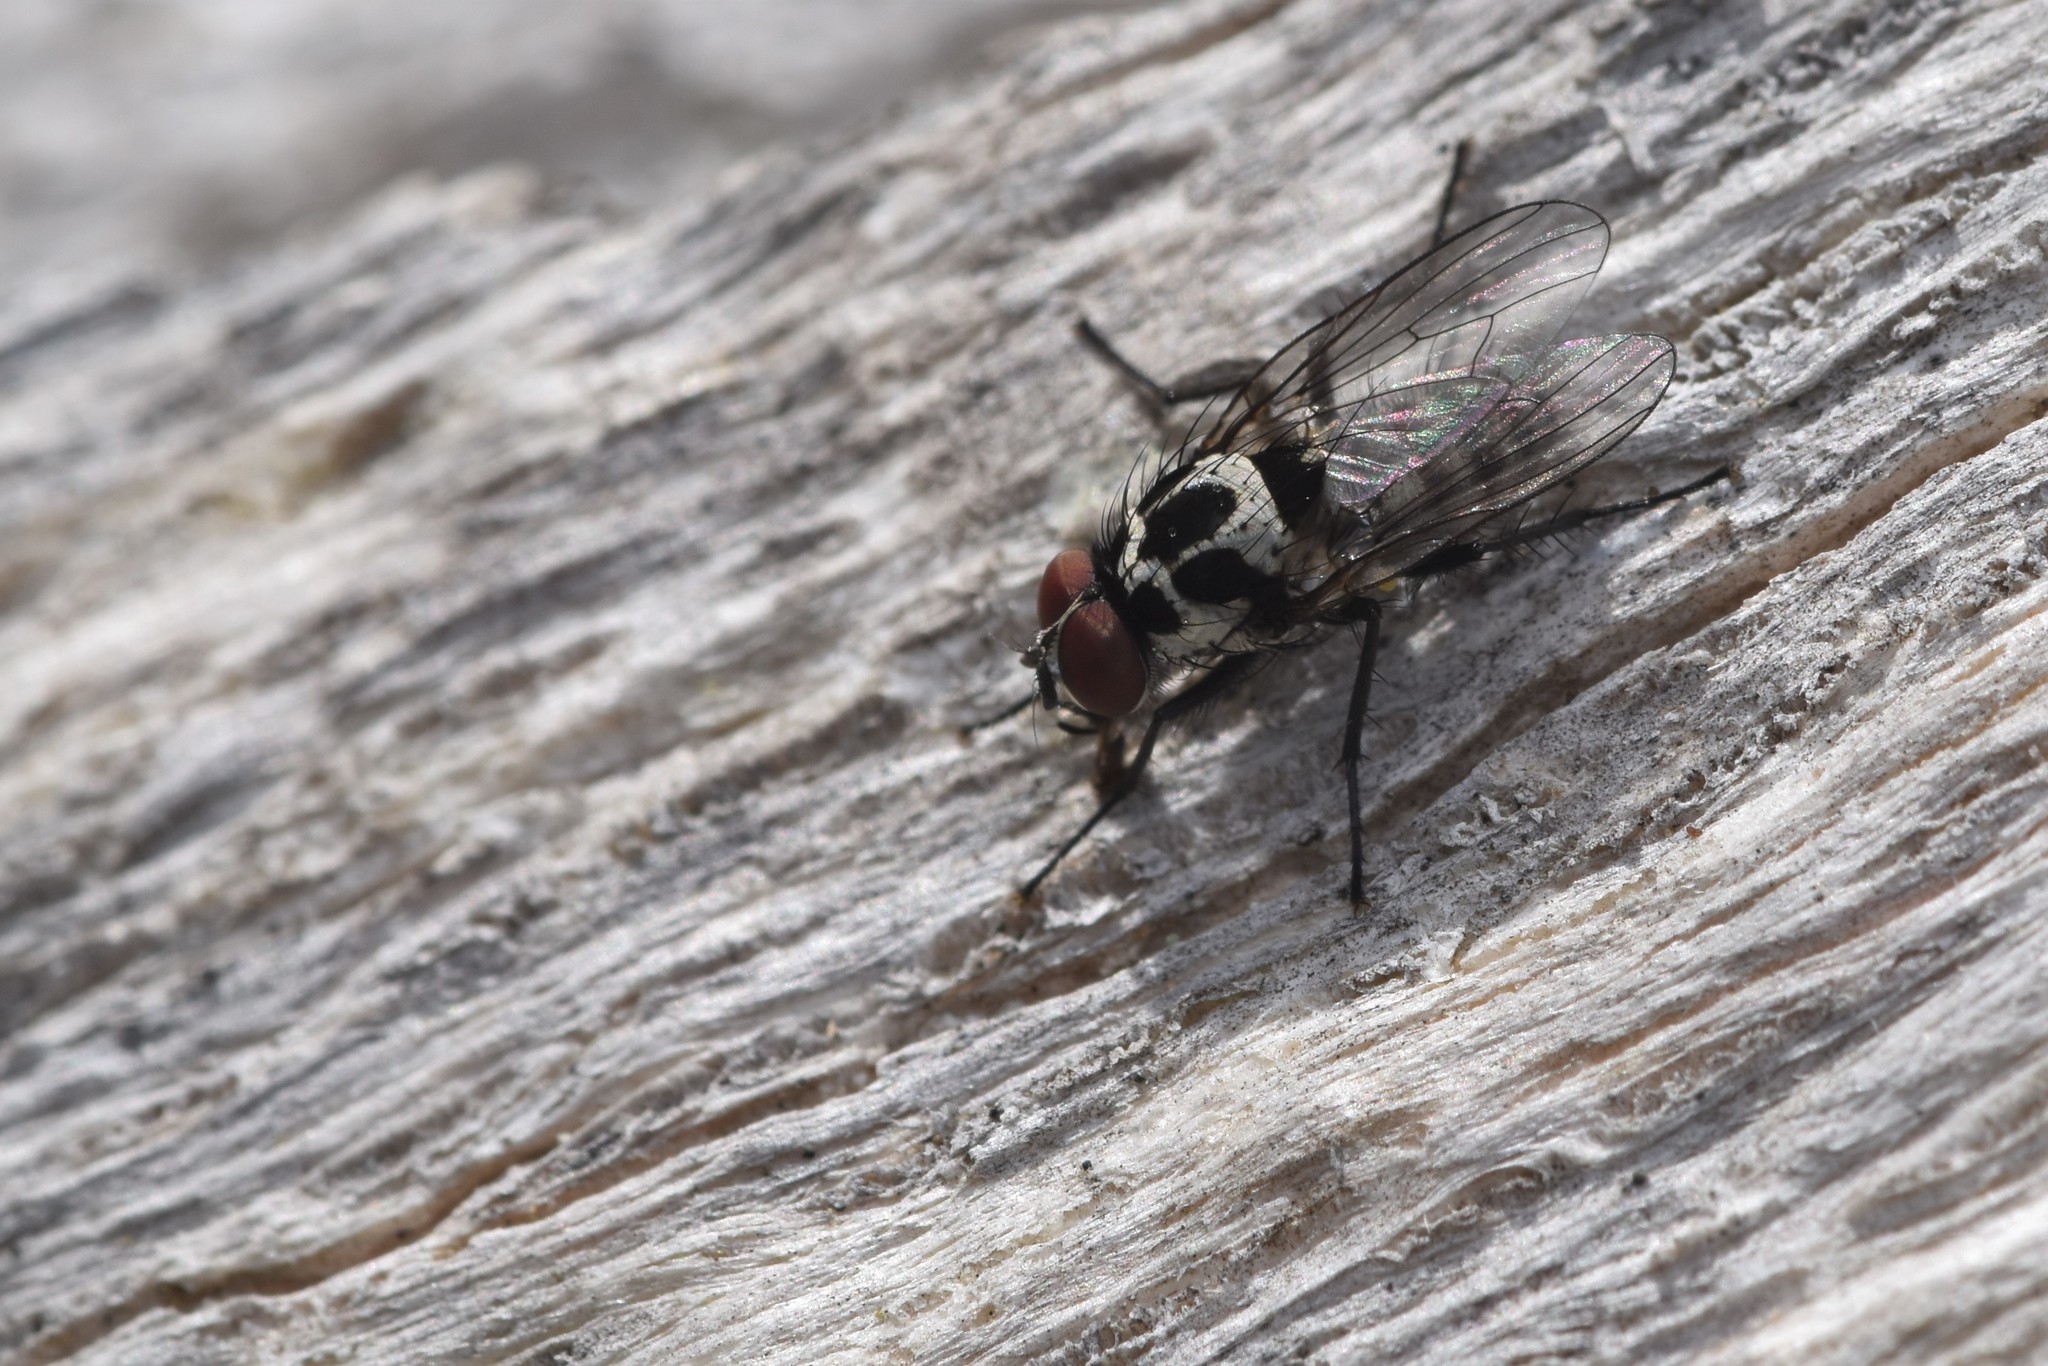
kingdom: Animalia
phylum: Arthropoda
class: Insecta
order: Diptera
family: Anthomyiidae
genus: Anthomyia
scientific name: Anthomyia procellaris
